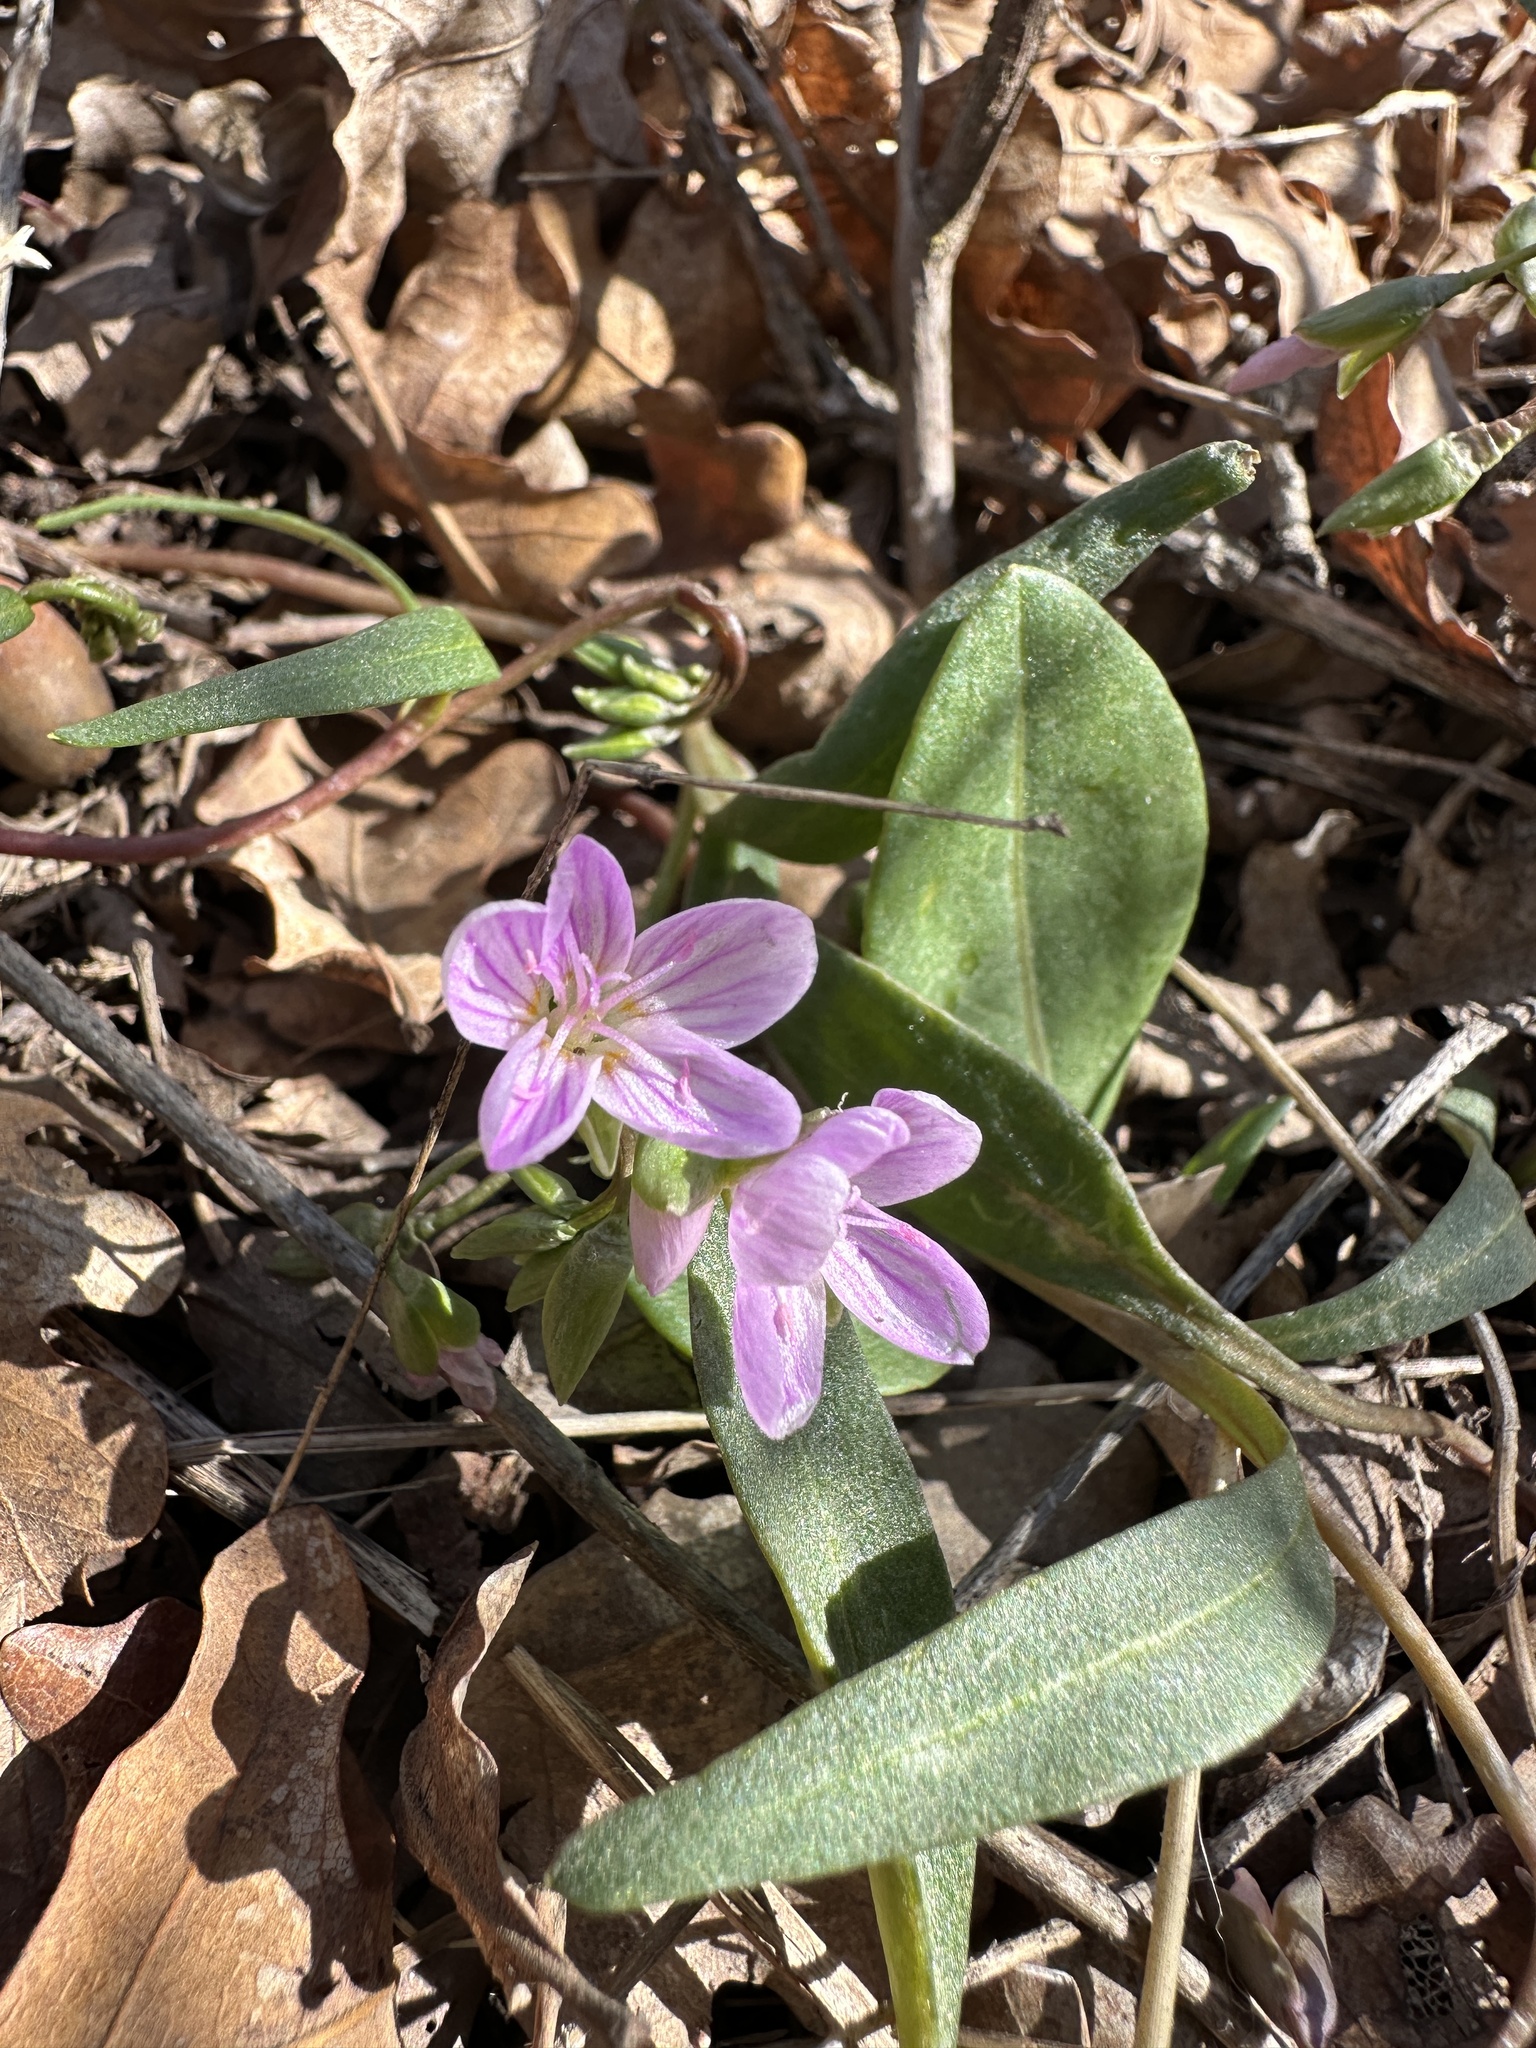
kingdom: Plantae
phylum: Tracheophyta
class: Magnoliopsida
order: Caryophyllales
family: Montiaceae
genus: Claytonia
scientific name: Claytonia rosea
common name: Rocky mountain spring-beauty
